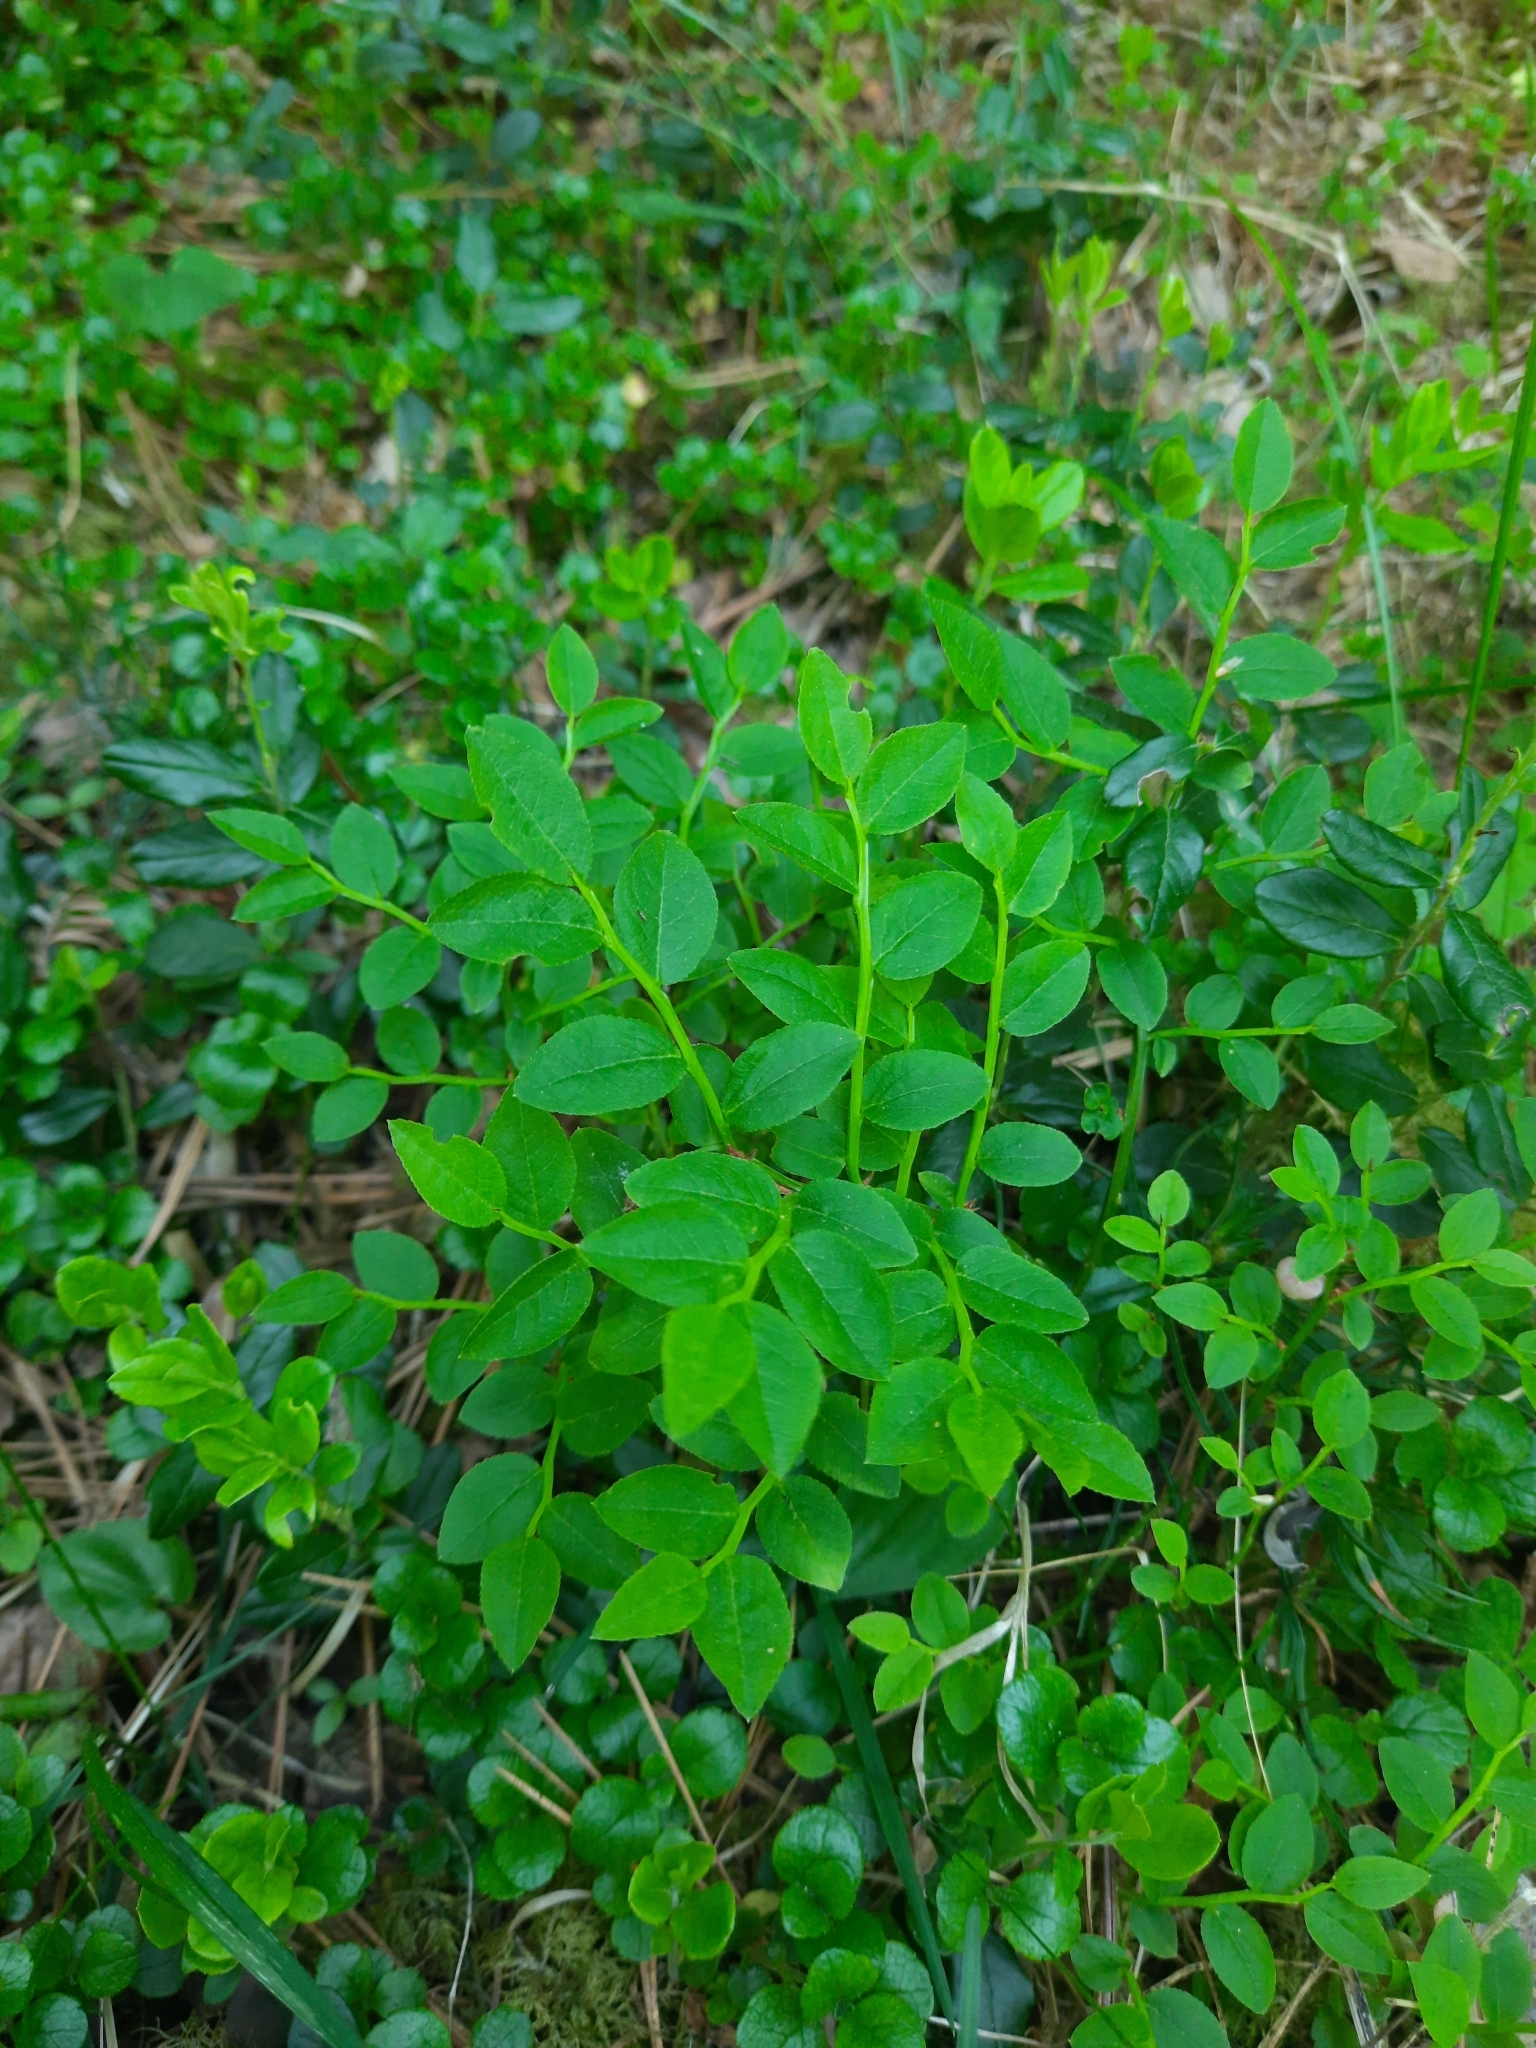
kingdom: Plantae
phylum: Tracheophyta
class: Magnoliopsida
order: Ericales
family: Ericaceae
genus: Vaccinium
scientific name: Vaccinium myrtillus
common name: Bilberry
